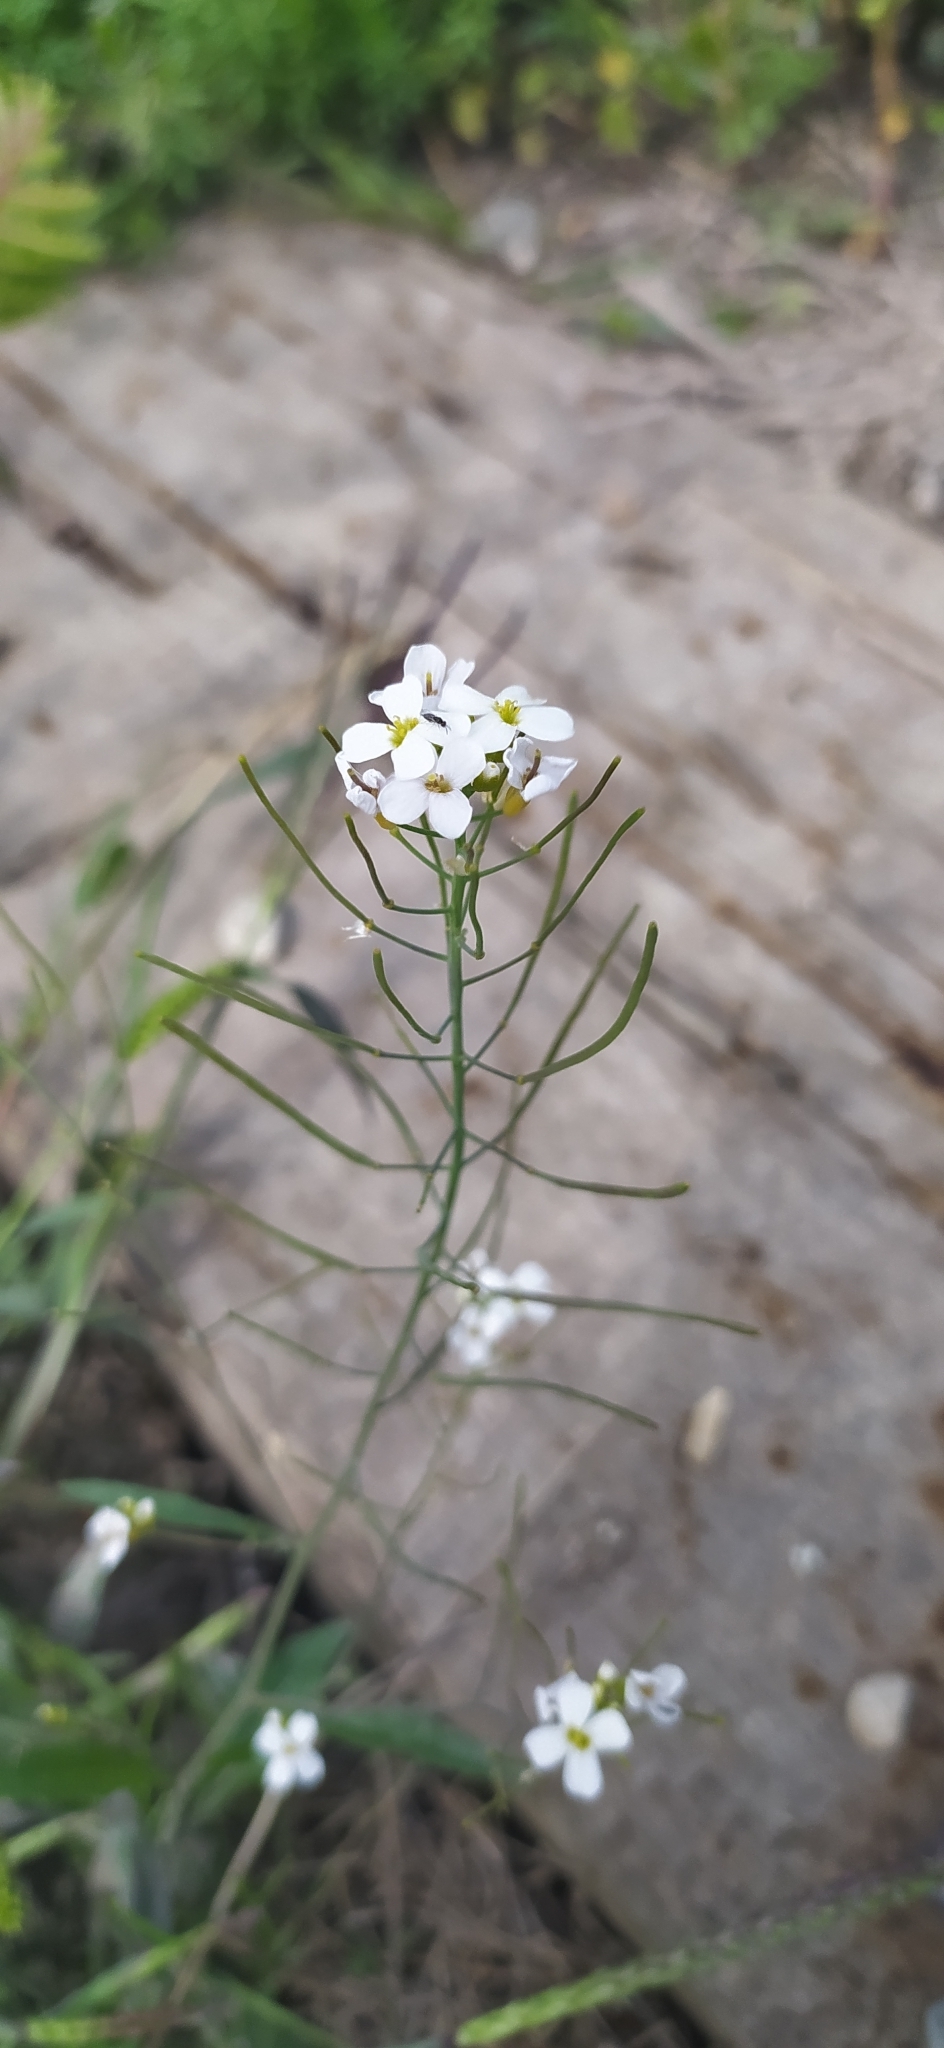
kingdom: Plantae
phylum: Tracheophyta
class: Magnoliopsida
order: Brassicales
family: Brassicaceae
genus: Arabidopsis
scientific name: Arabidopsis arenosa
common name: Sand rock-cress
